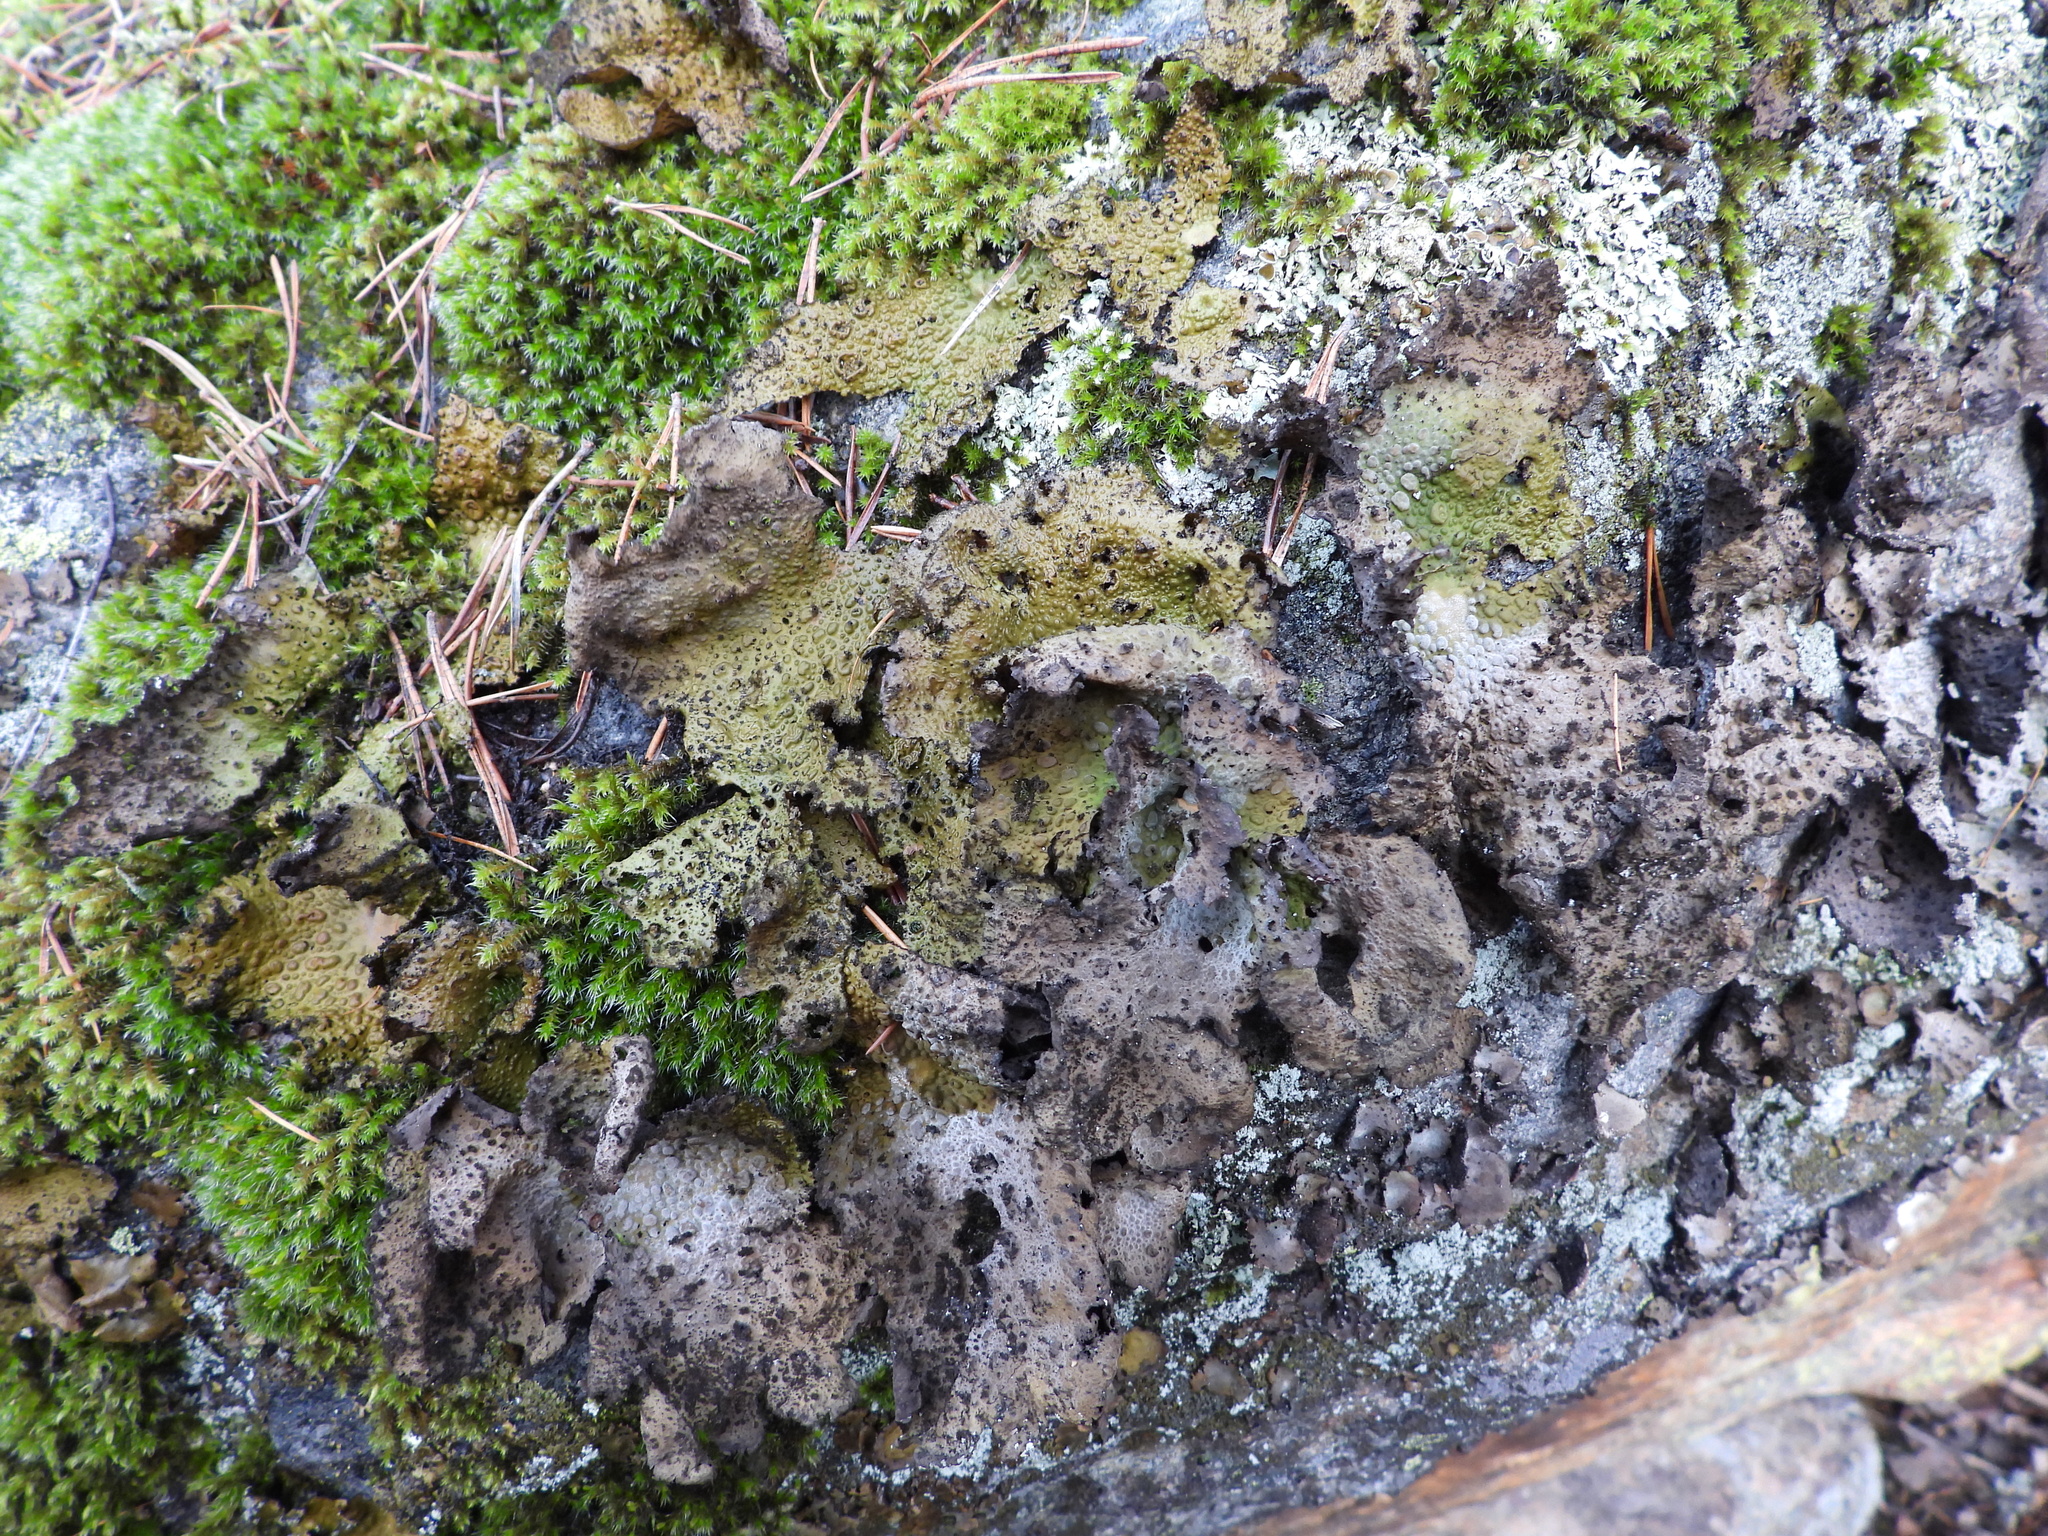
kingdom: Fungi
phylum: Ascomycota
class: Lecanoromycetes
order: Umbilicariales
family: Umbilicariaceae
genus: Lasallia
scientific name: Lasallia pustulata
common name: Blistered toadskin lichen
